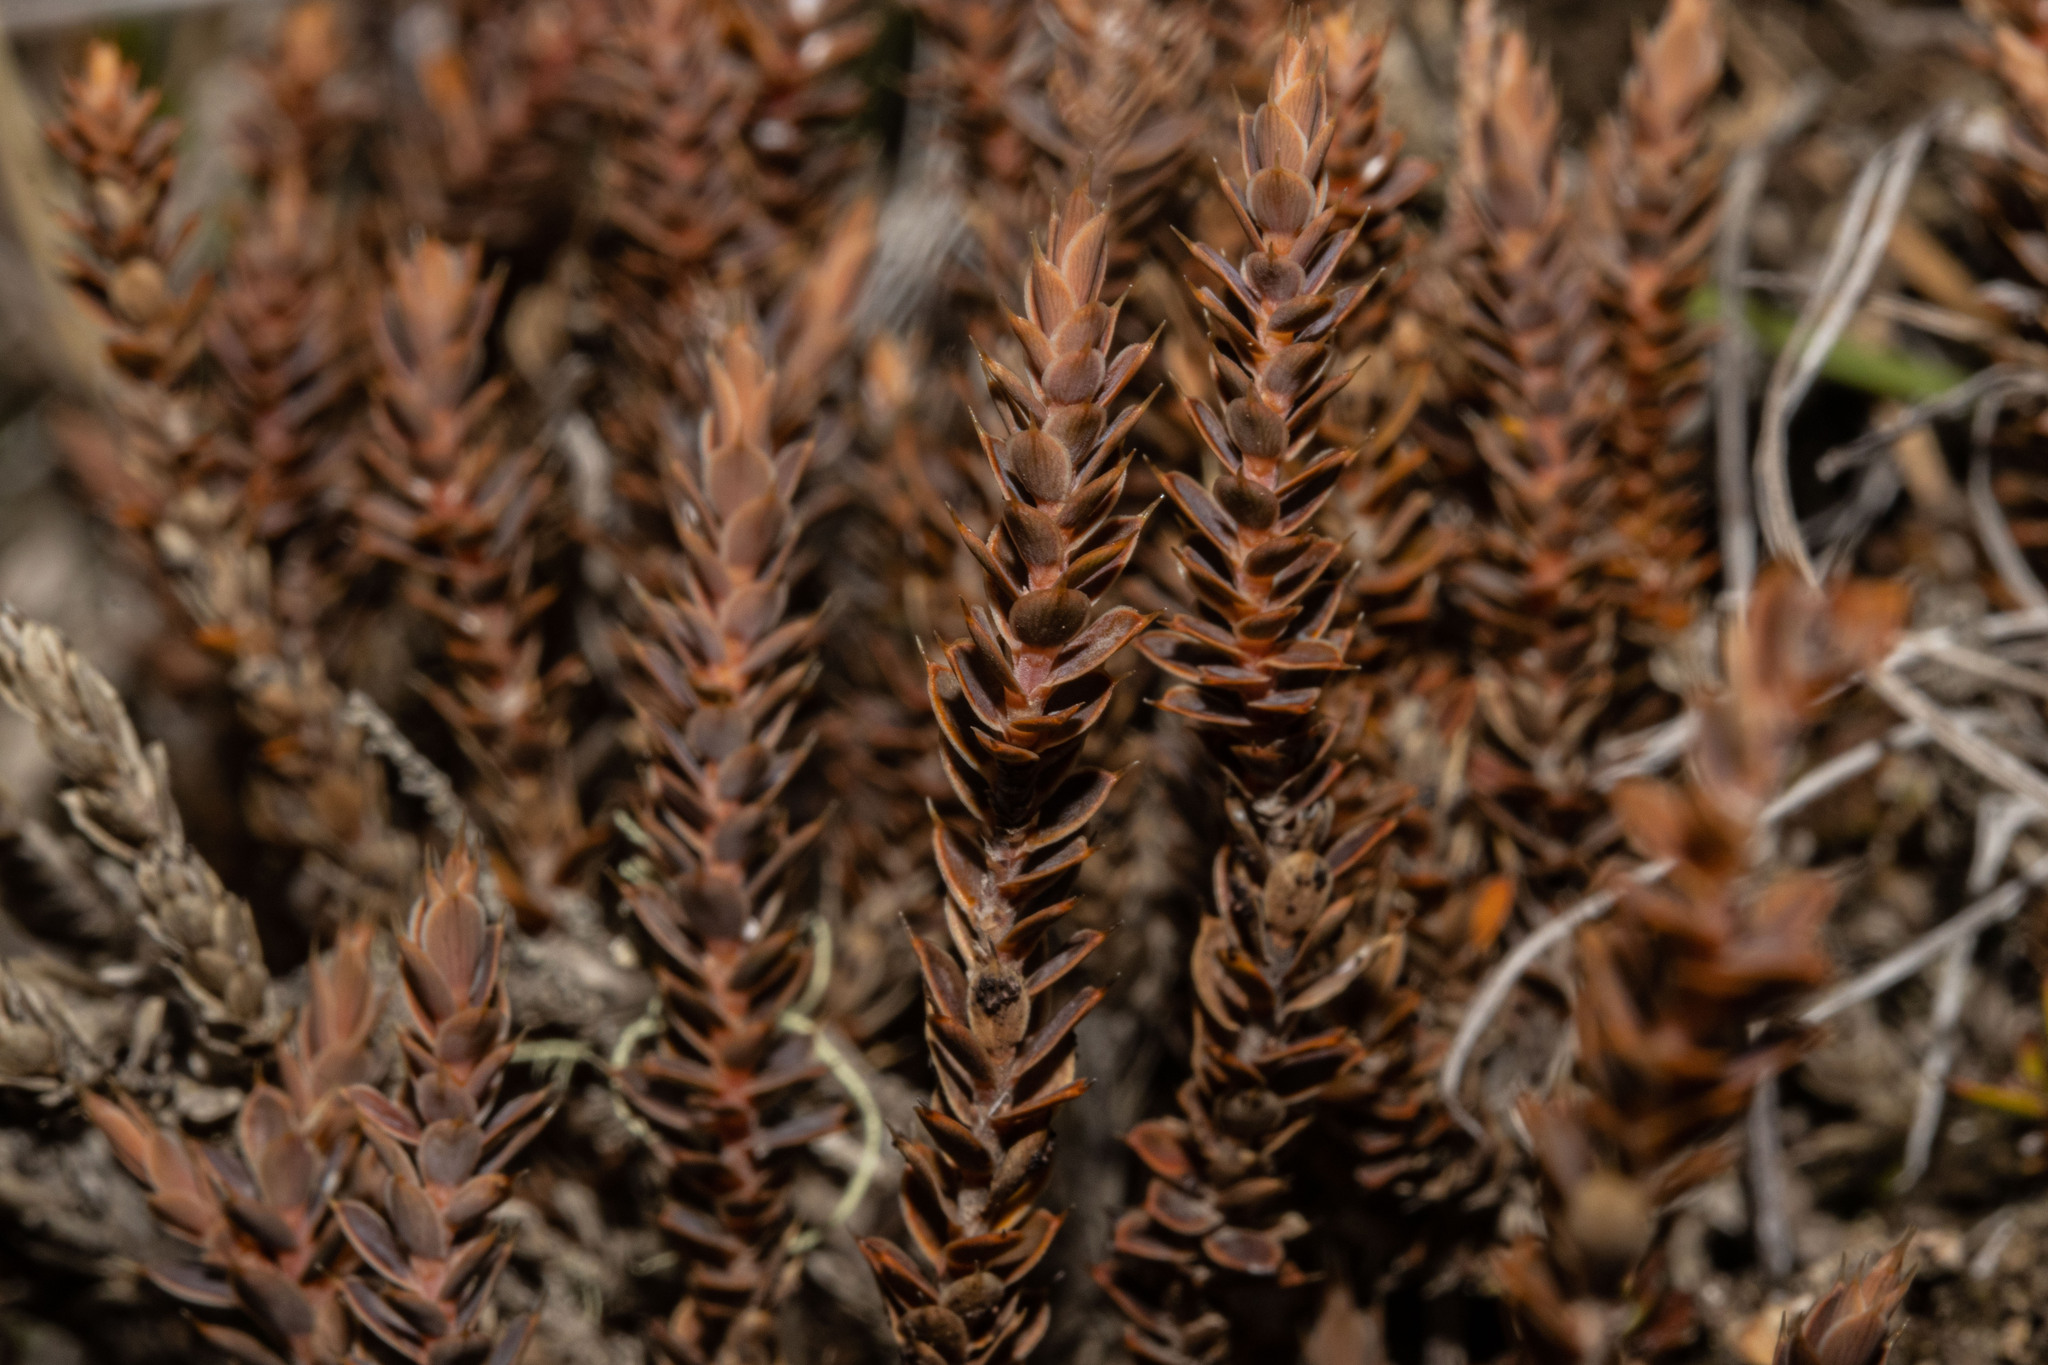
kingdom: Plantae
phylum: Tracheophyta
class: Magnoliopsida
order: Ericales
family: Ericaceae
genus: Styphelia
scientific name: Styphelia nesophila
